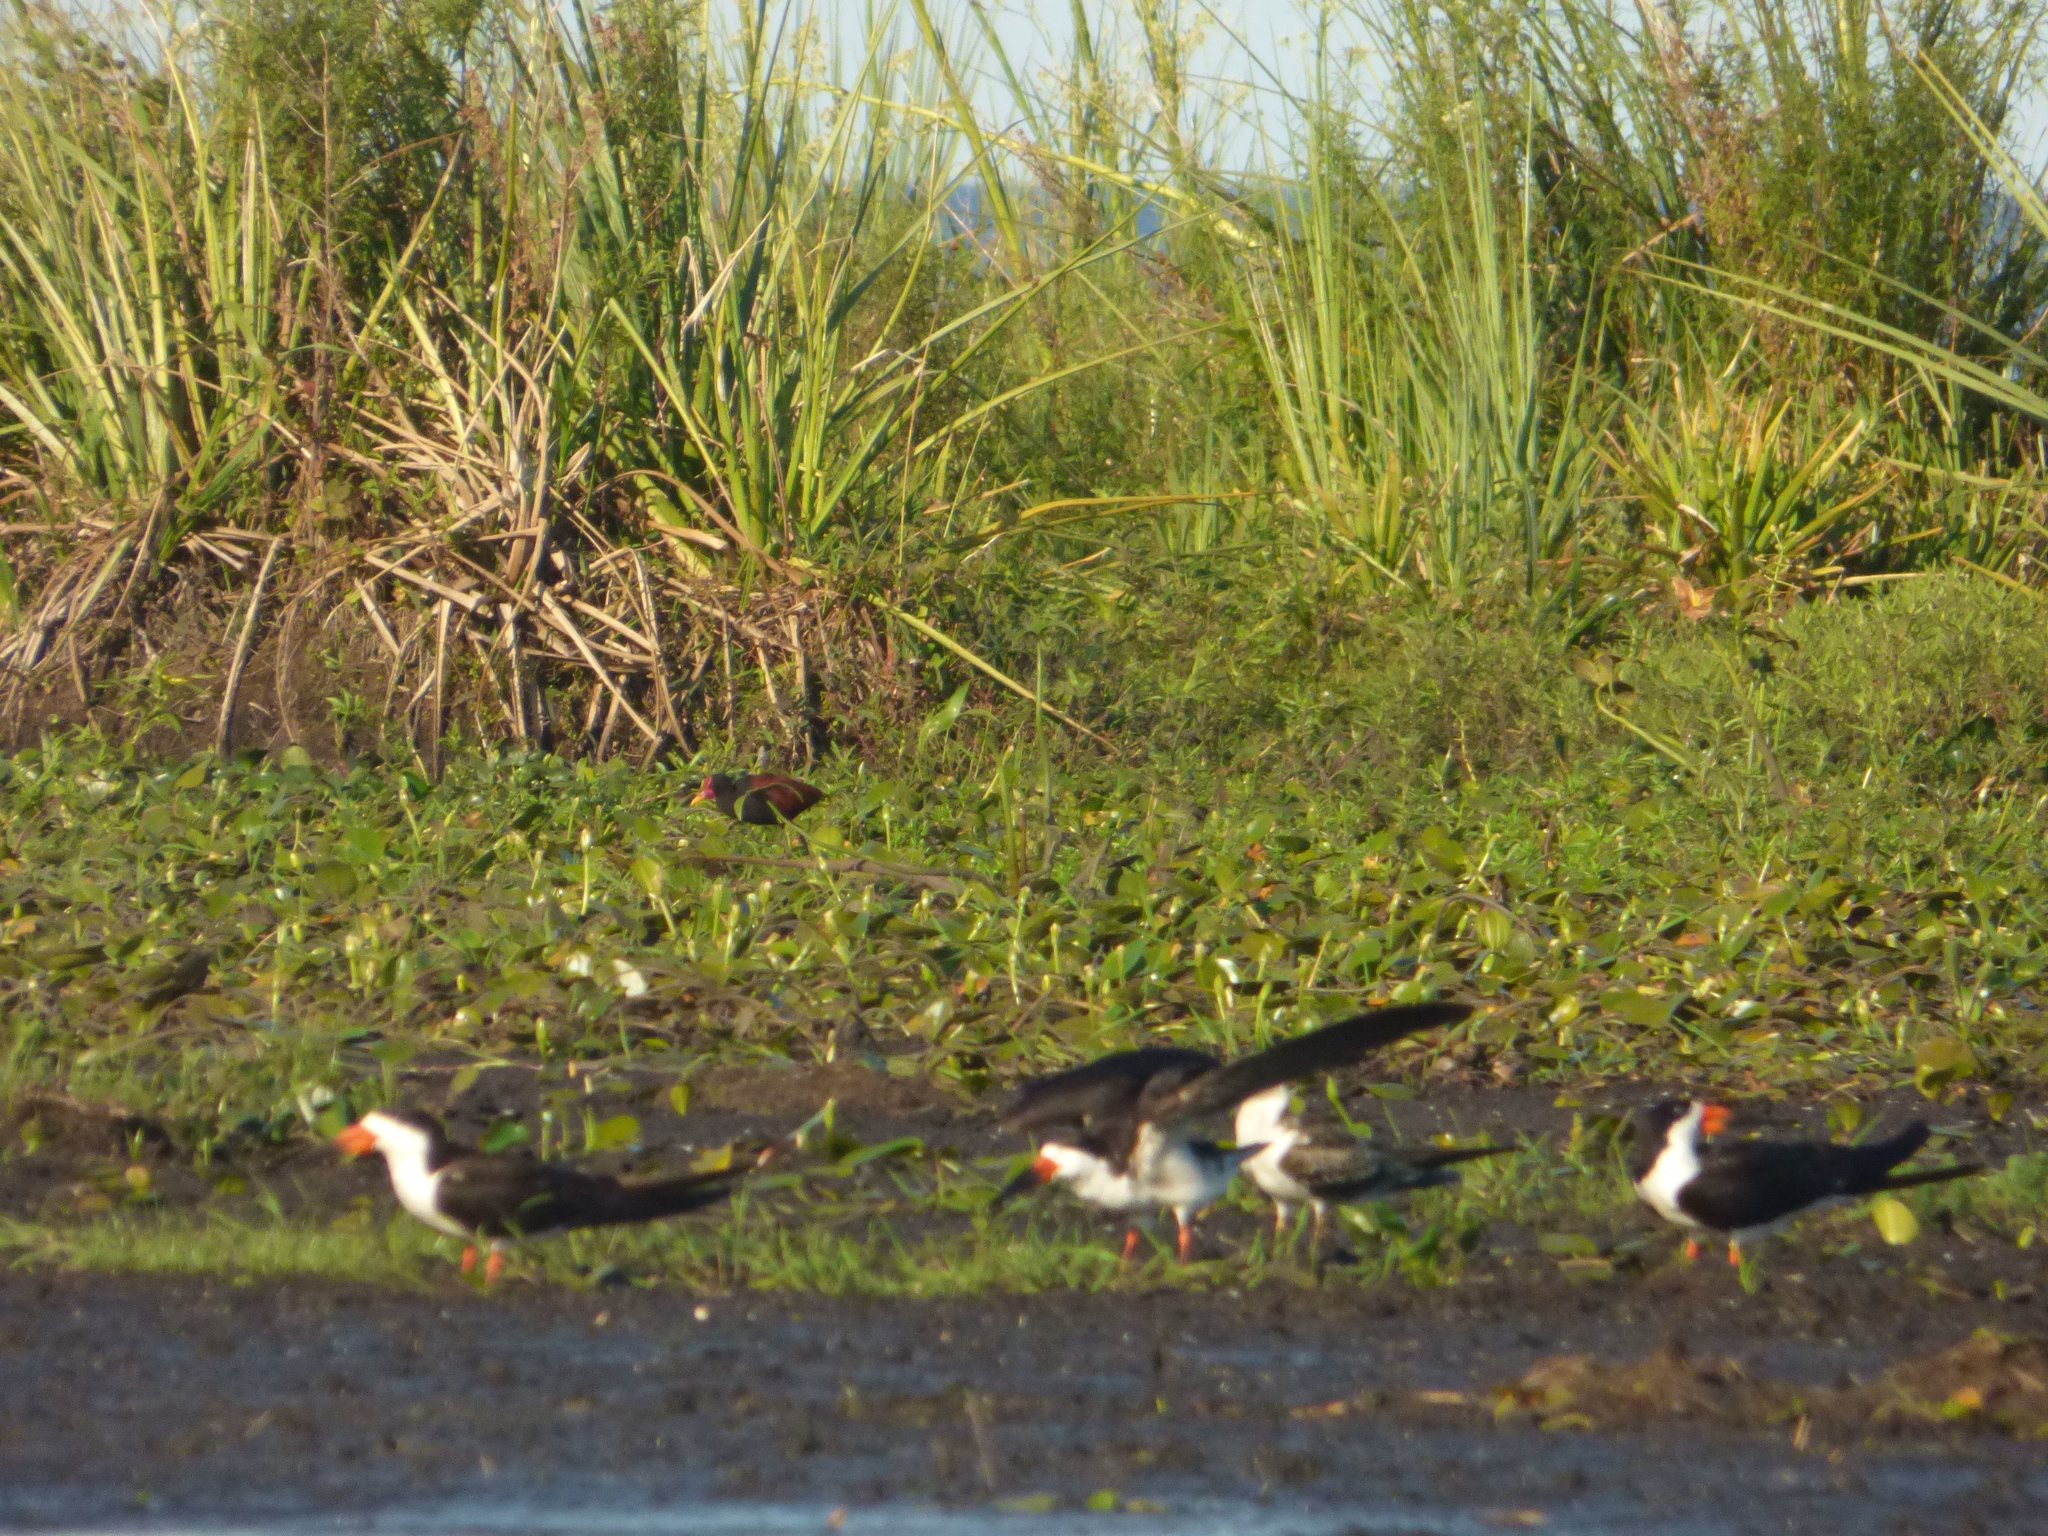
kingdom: Animalia
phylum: Chordata
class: Aves
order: Charadriiformes
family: Laridae
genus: Rynchops
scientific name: Rynchops niger
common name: Black skimmer
